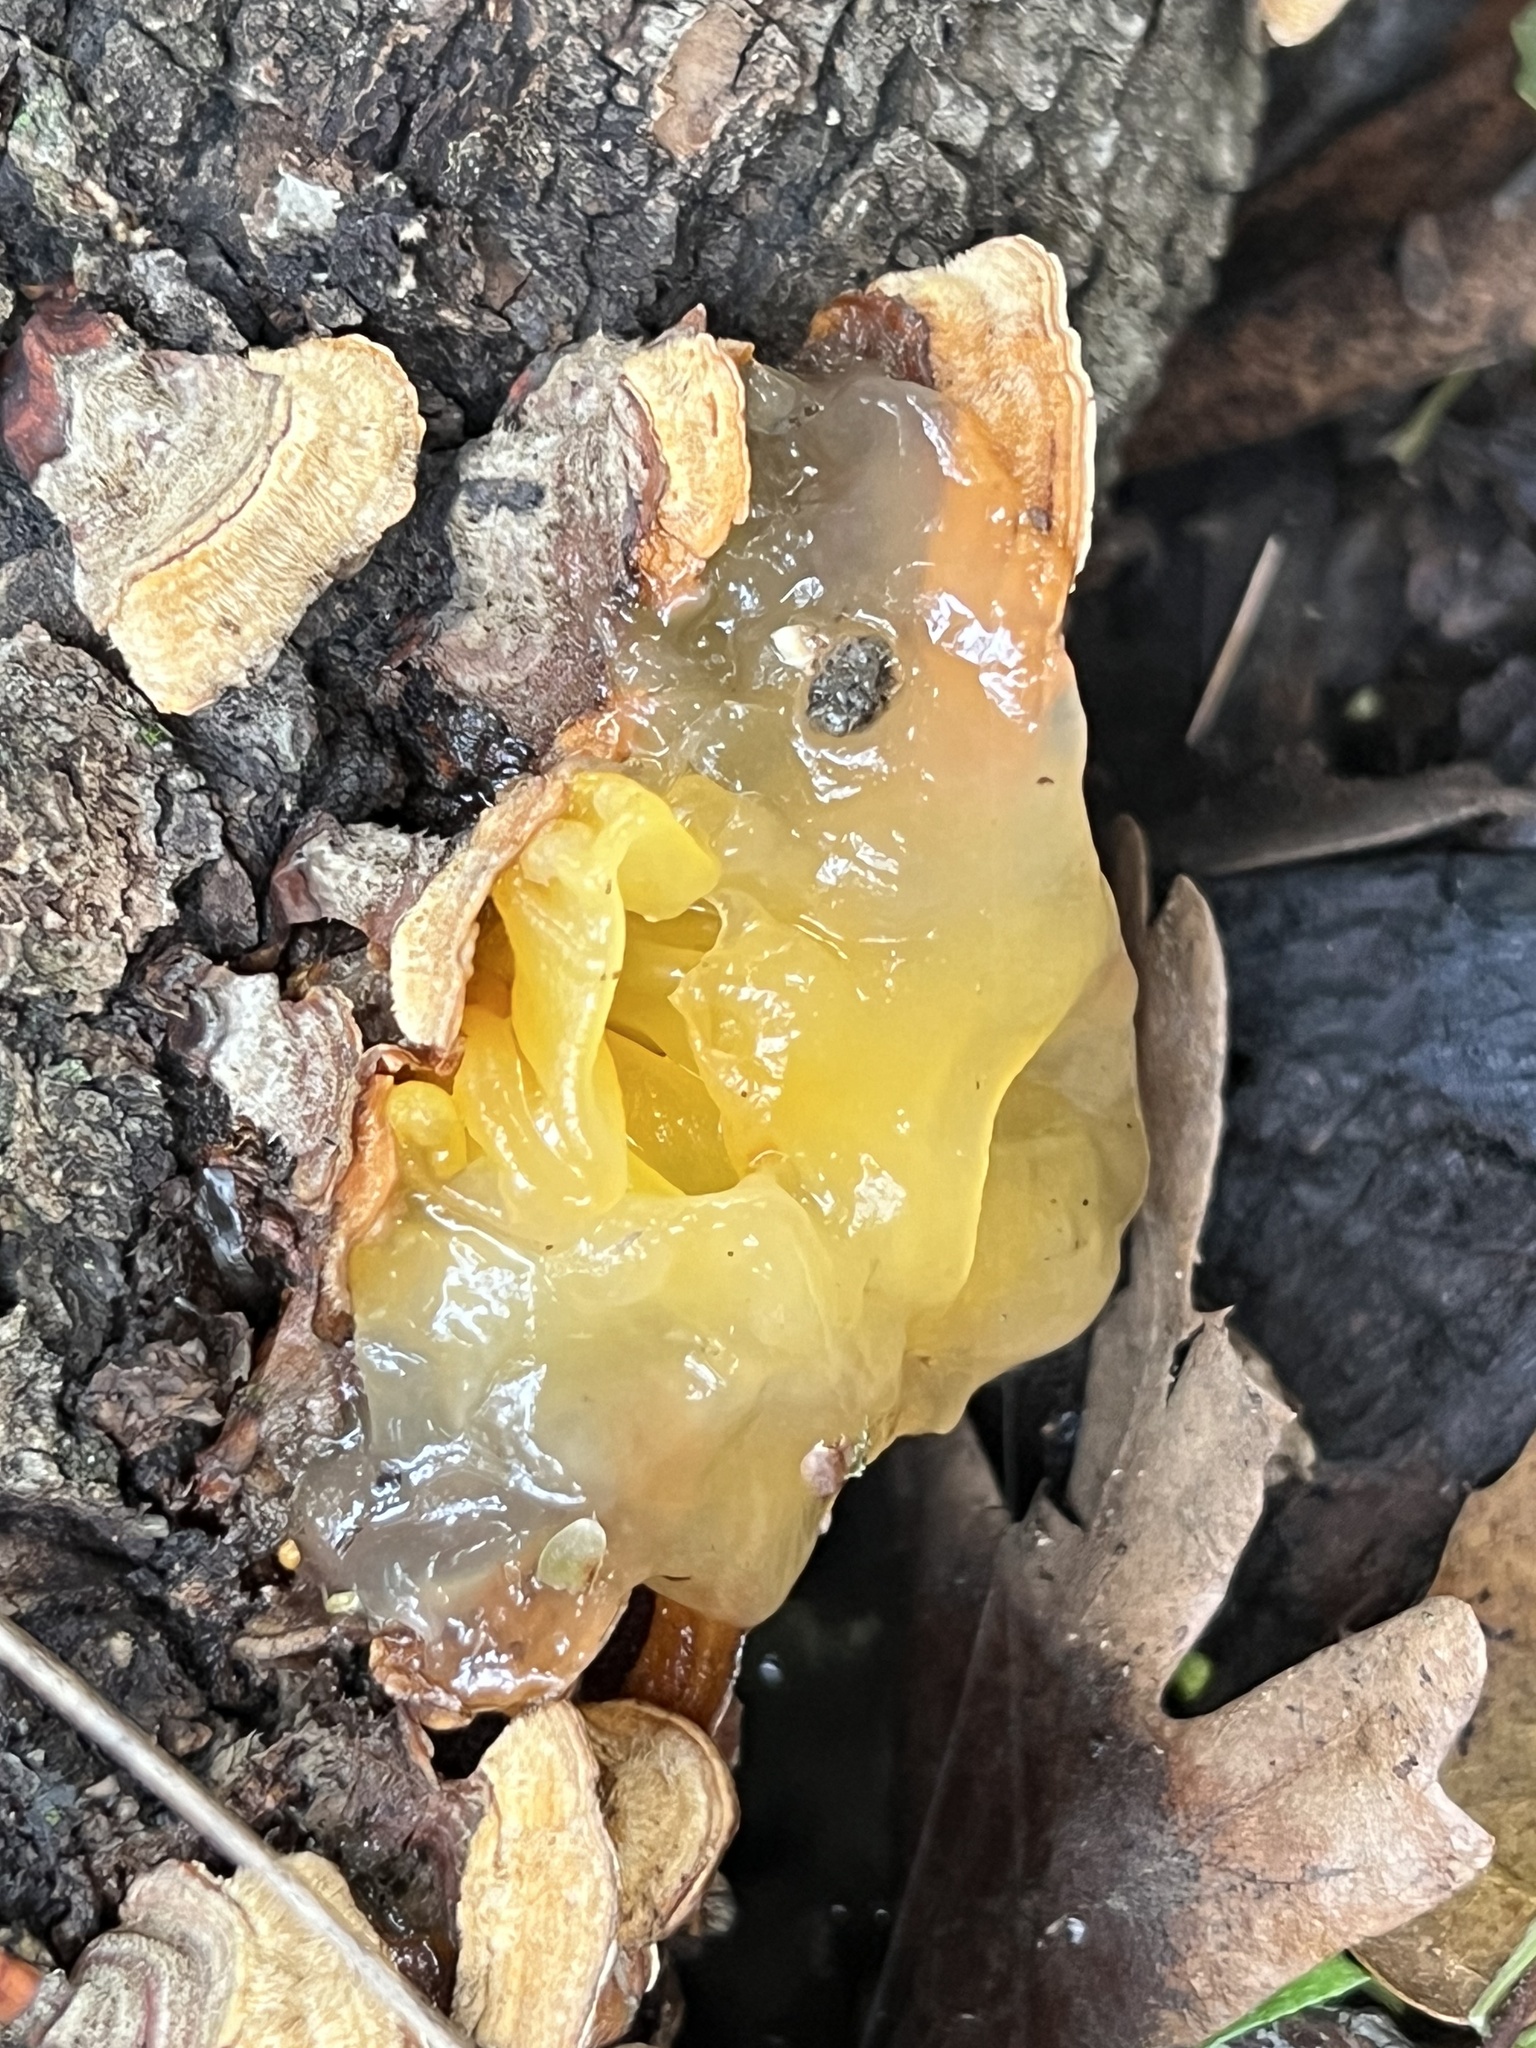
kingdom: Fungi
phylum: Basidiomycota
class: Tremellomycetes
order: Tremellales
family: Naemateliaceae
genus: Naematelia
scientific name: Naematelia aurantia
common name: Golden ear
